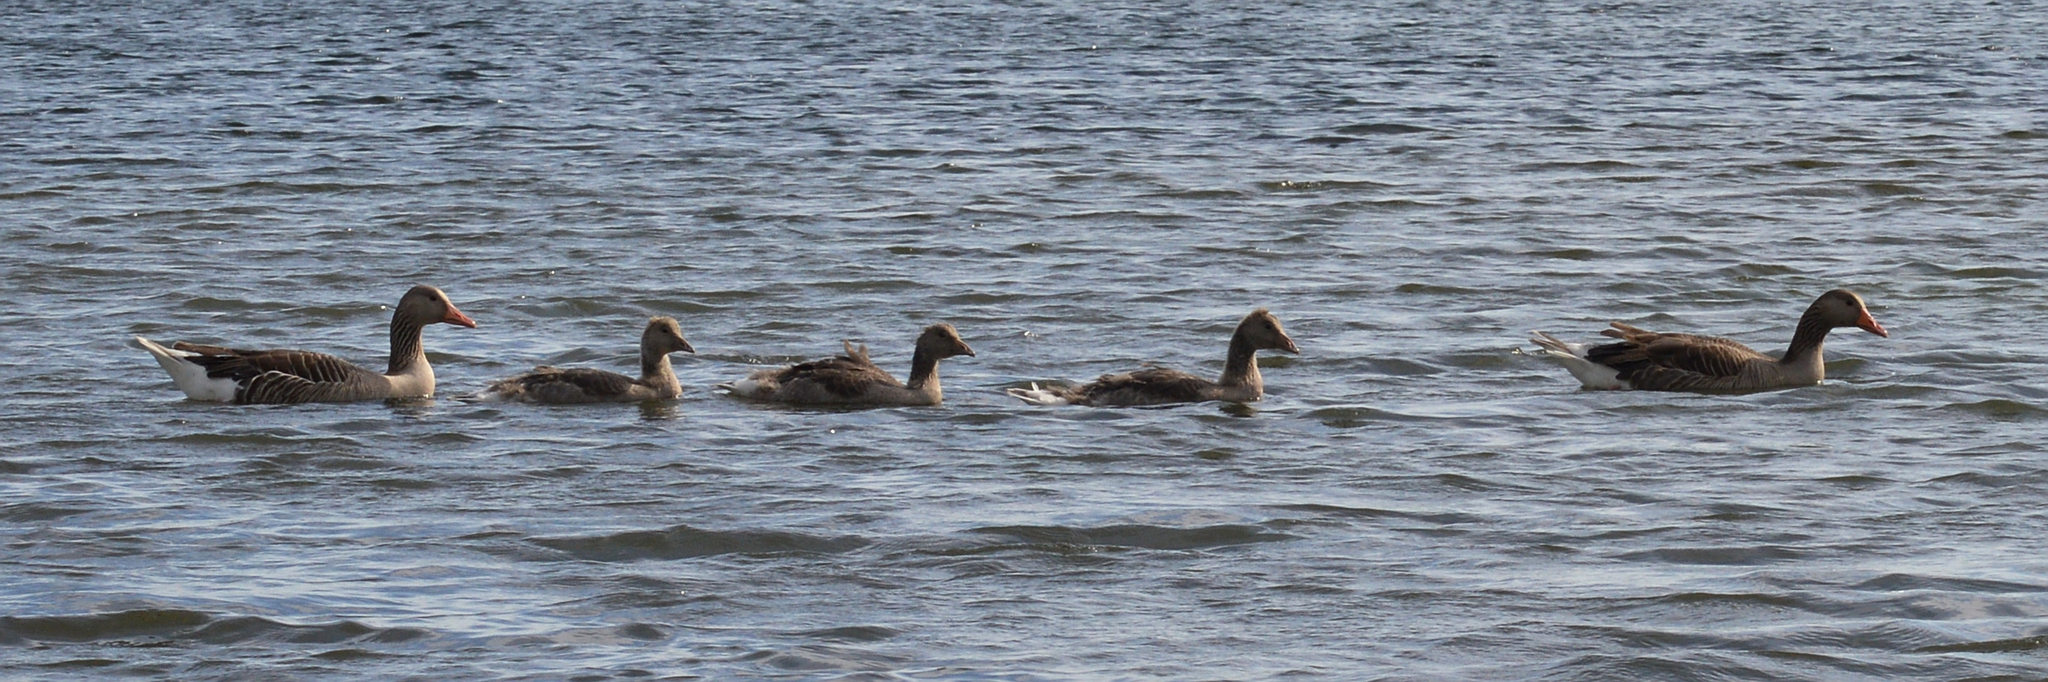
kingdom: Animalia
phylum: Chordata
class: Aves
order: Anseriformes
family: Anatidae
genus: Anser
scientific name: Anser anser
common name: Greylag goose
